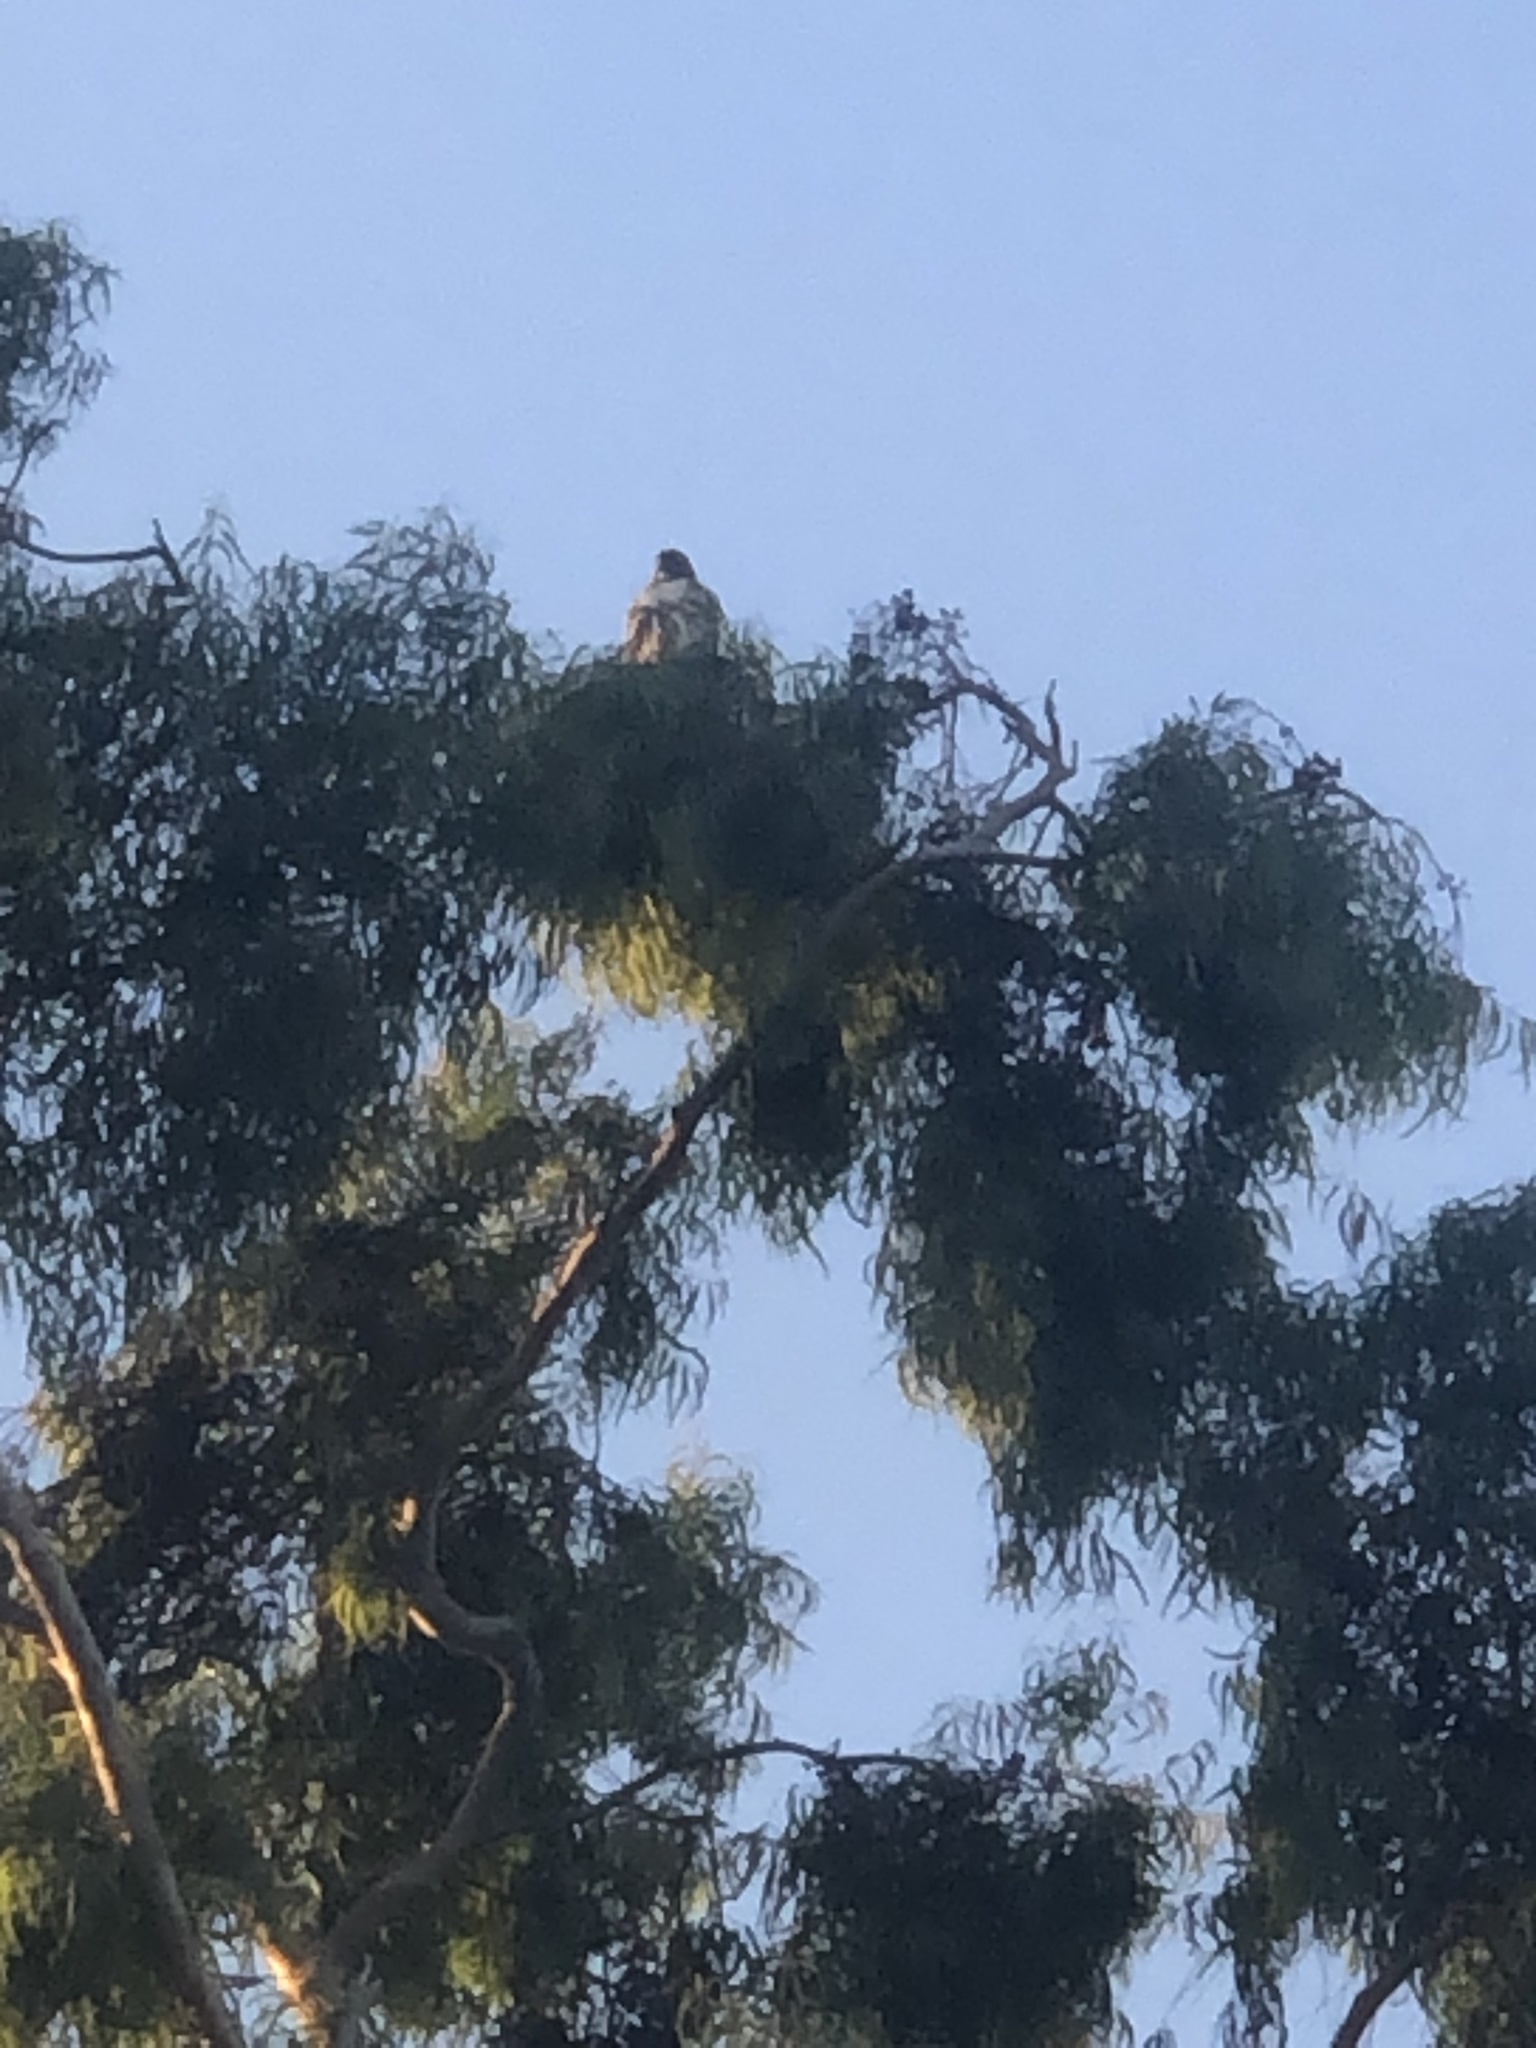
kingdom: Animalia
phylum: Chordata
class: Aves
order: Accipitriformes
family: Accipitridae
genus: Buteo
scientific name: Buteo jamaicensis
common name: Red-tailed hawk
